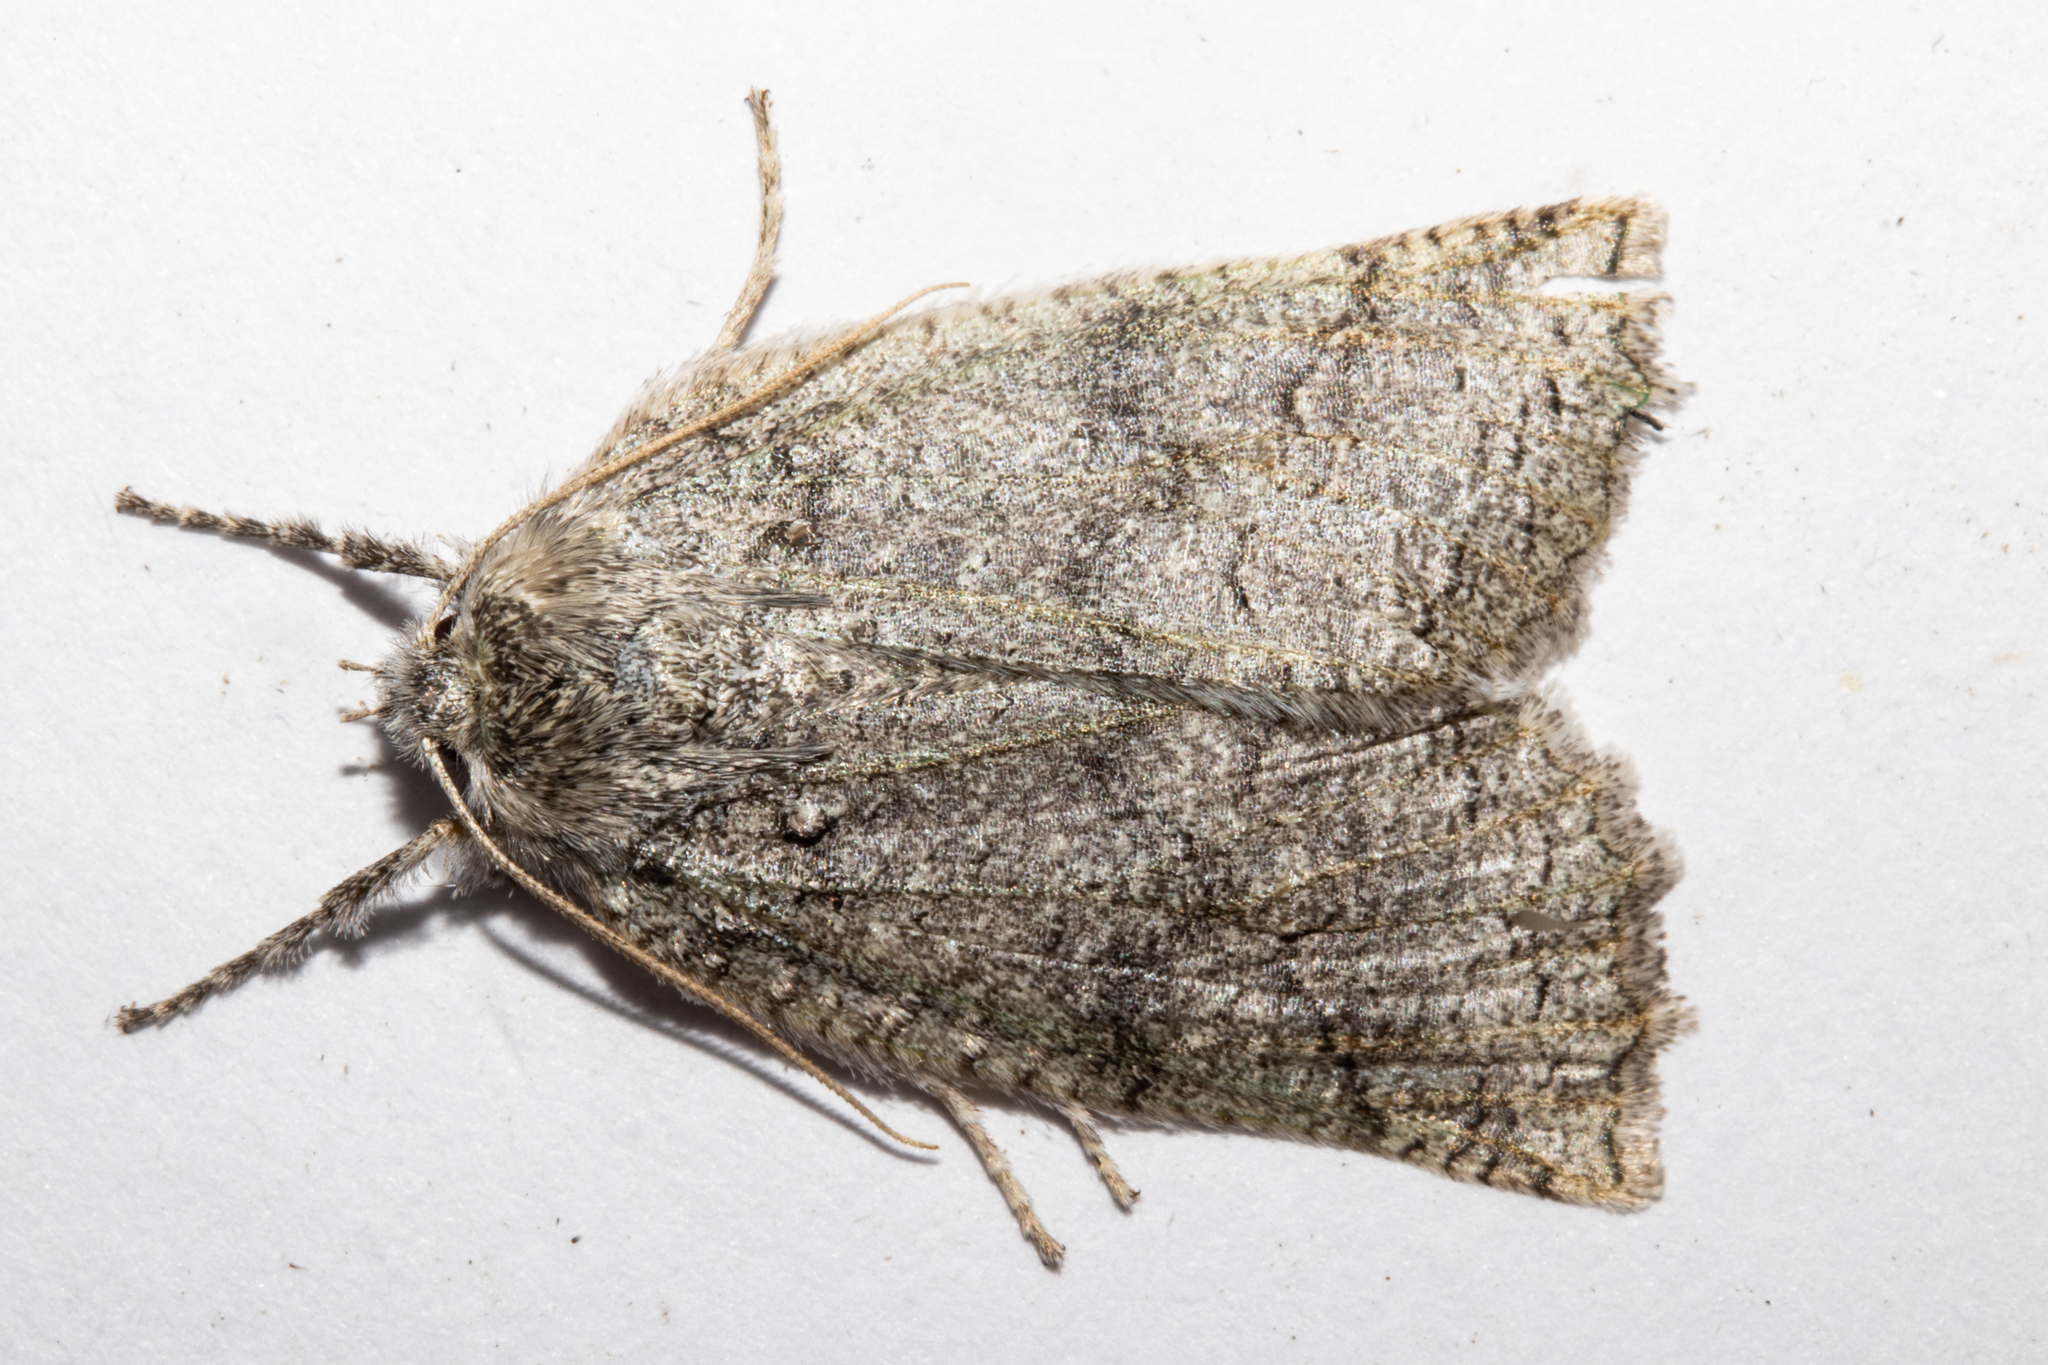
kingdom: Animalia
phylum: Arthropoda
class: Insecta
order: Lepidoptera
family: Geometridae
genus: Declana
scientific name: Declana floccosa
